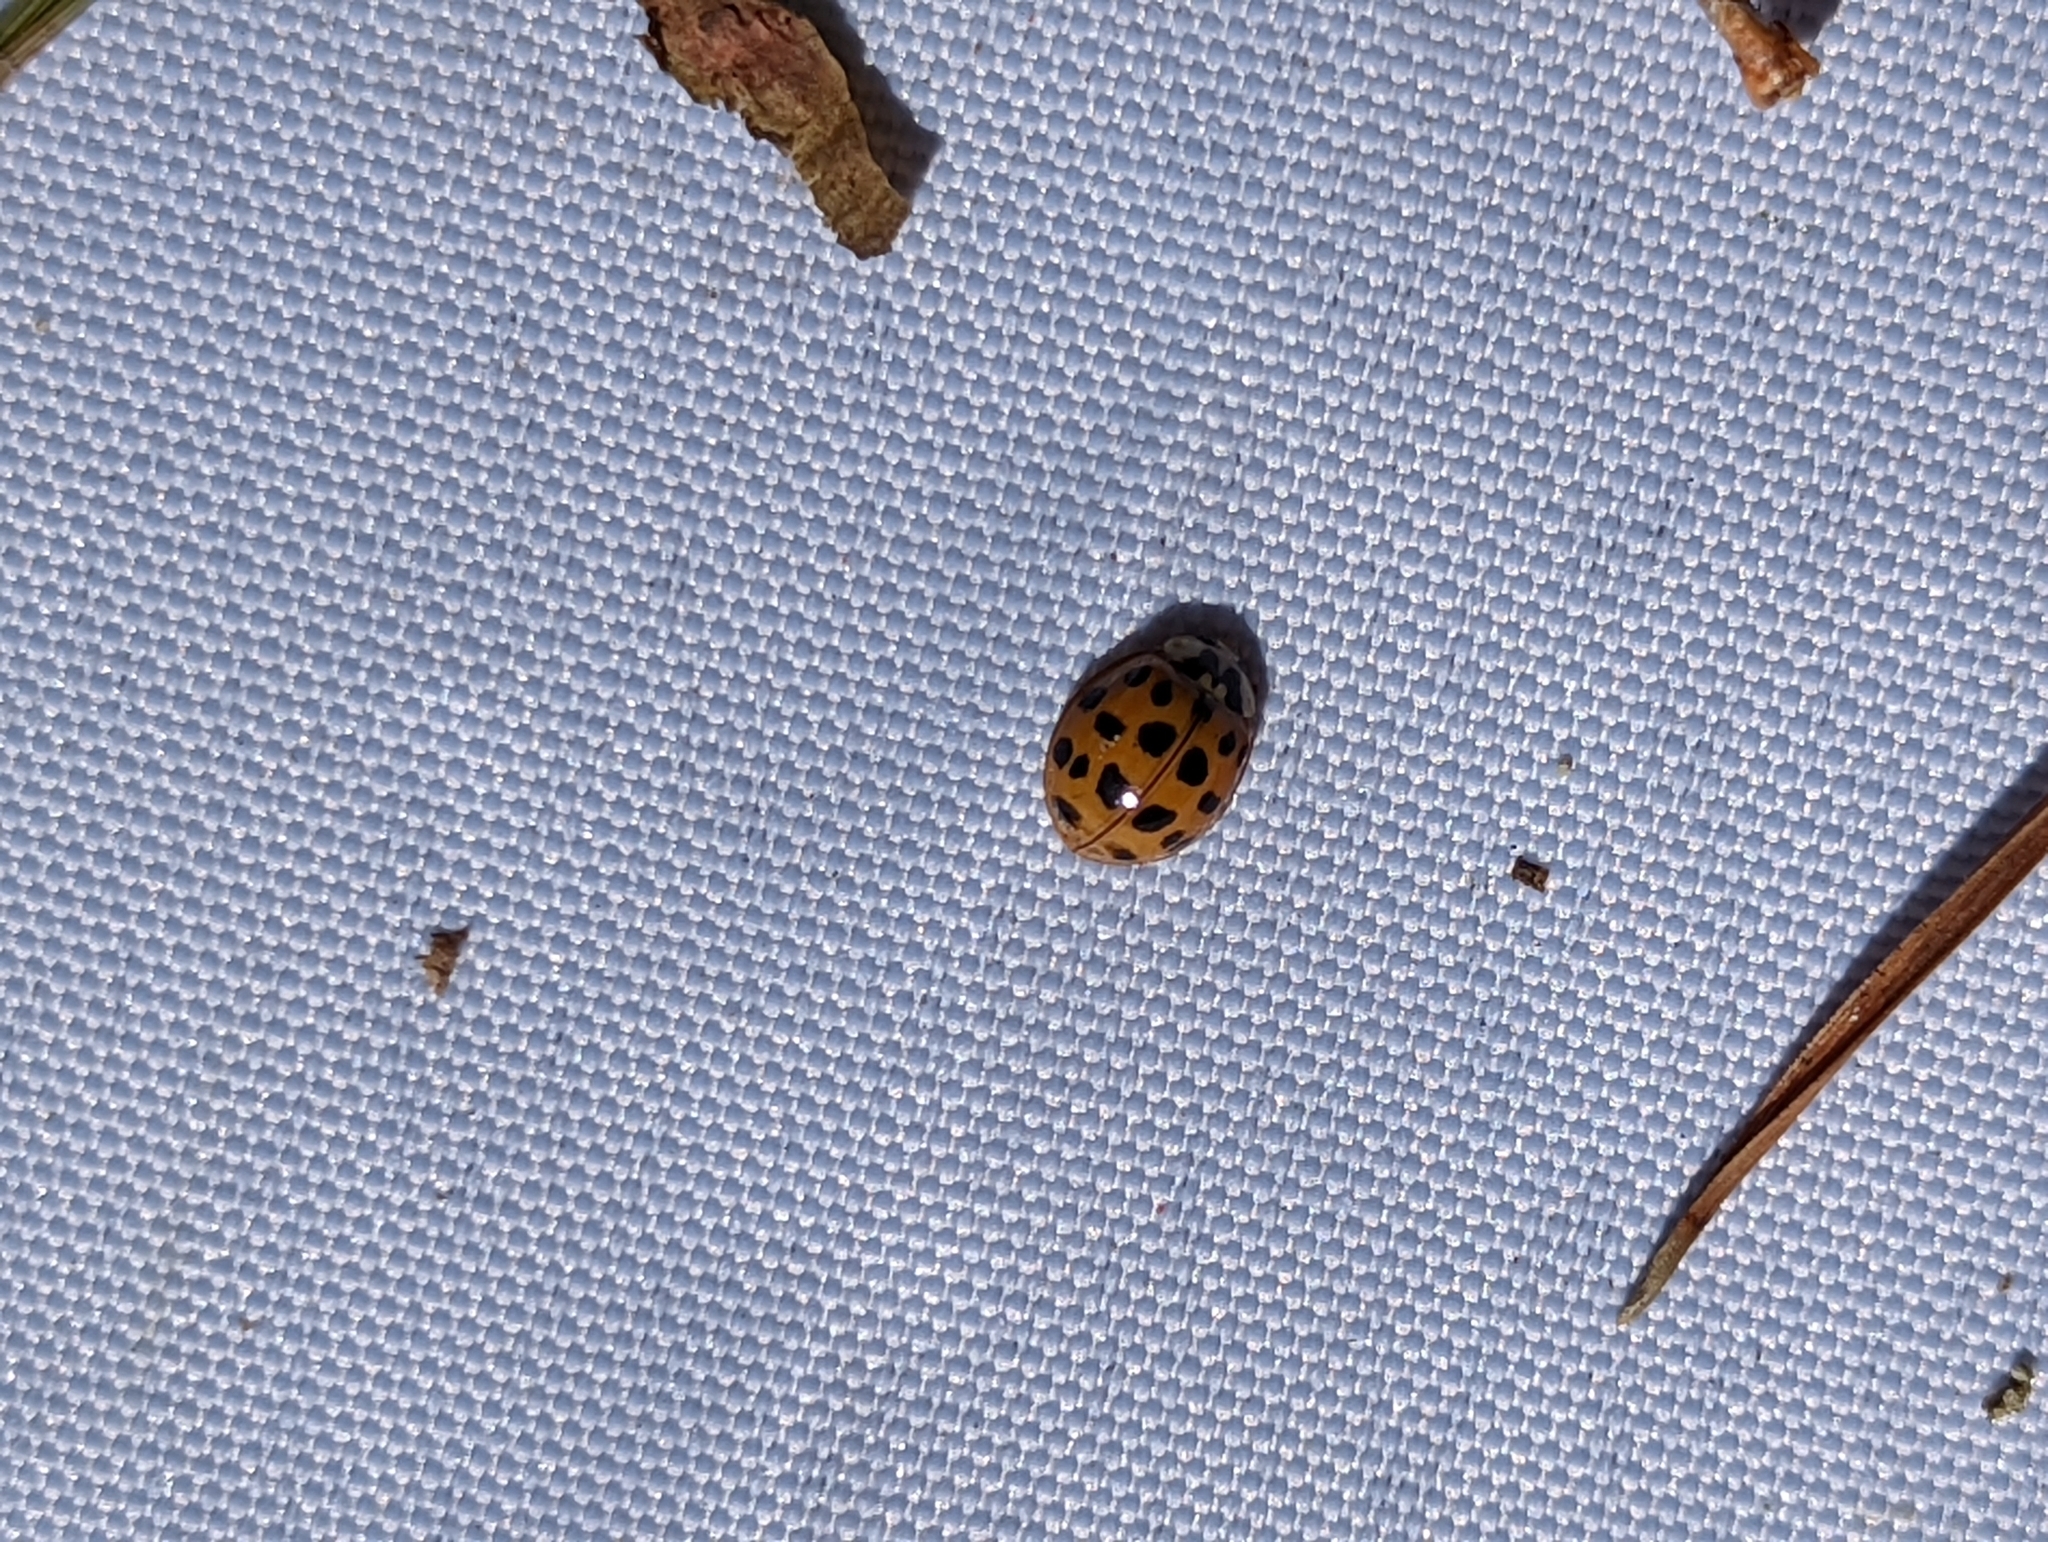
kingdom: Animalia
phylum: Arthropoda
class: Insecta
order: Coleoptera
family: Coccinellidae
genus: Harmonia
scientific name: Harmonia axyridis
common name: Harlequin ladybird
